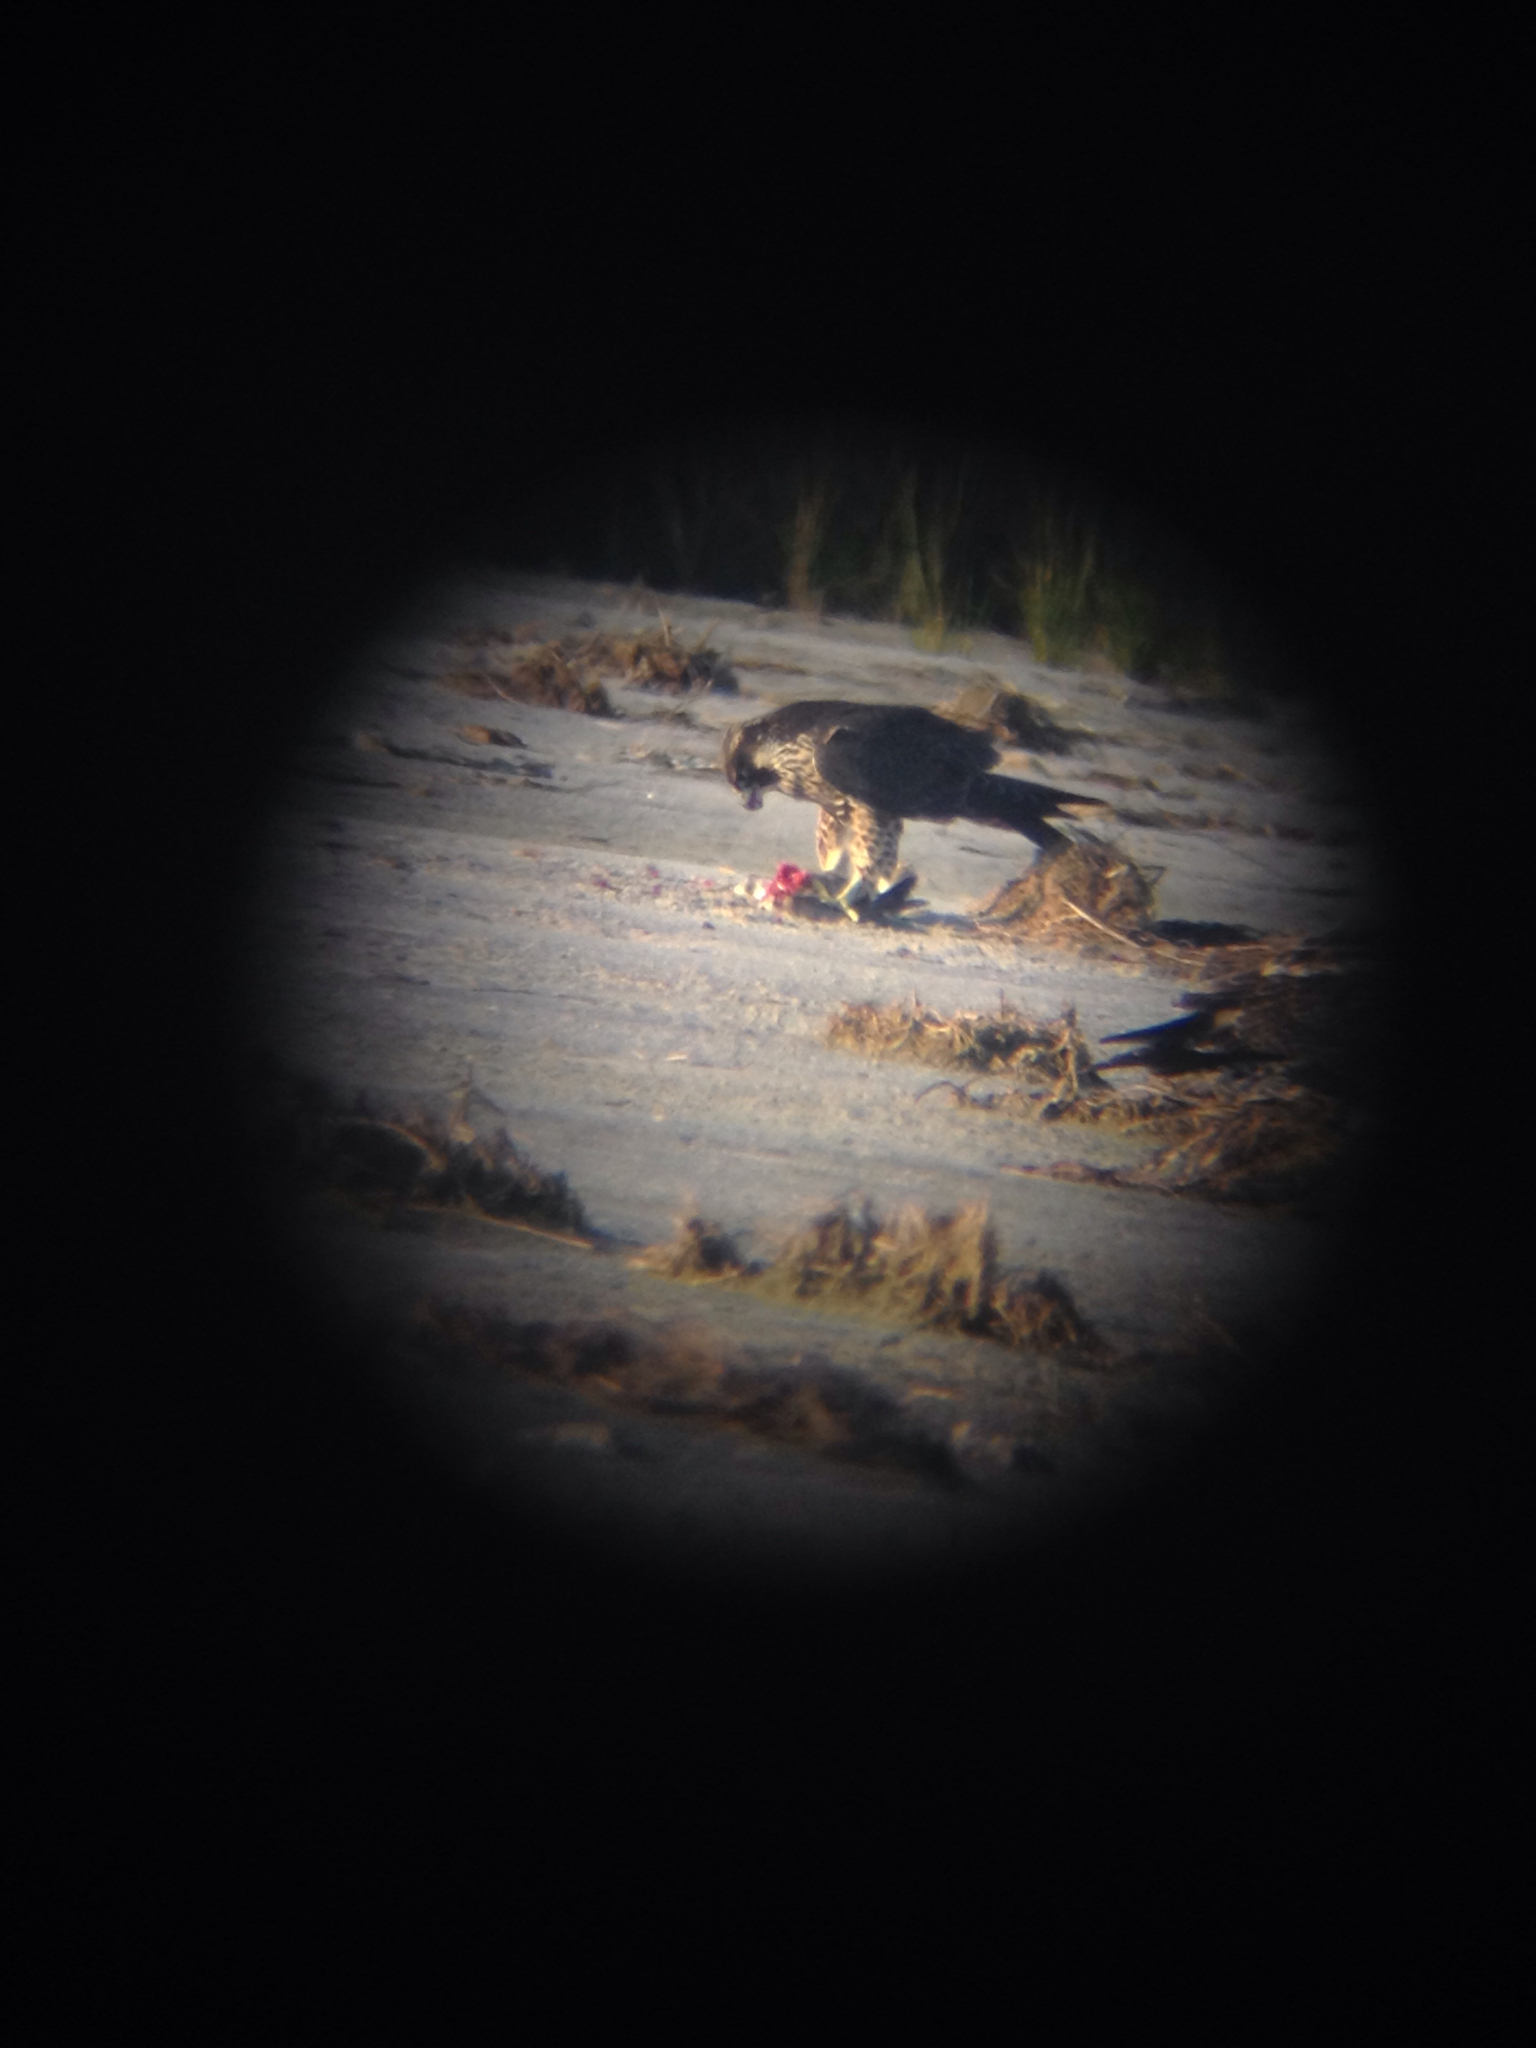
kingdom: Animalia
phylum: Chordata
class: Aves
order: Falconiformes
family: Falconidae
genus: Falco
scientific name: Falco peregrinus
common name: Peregrine falcon
